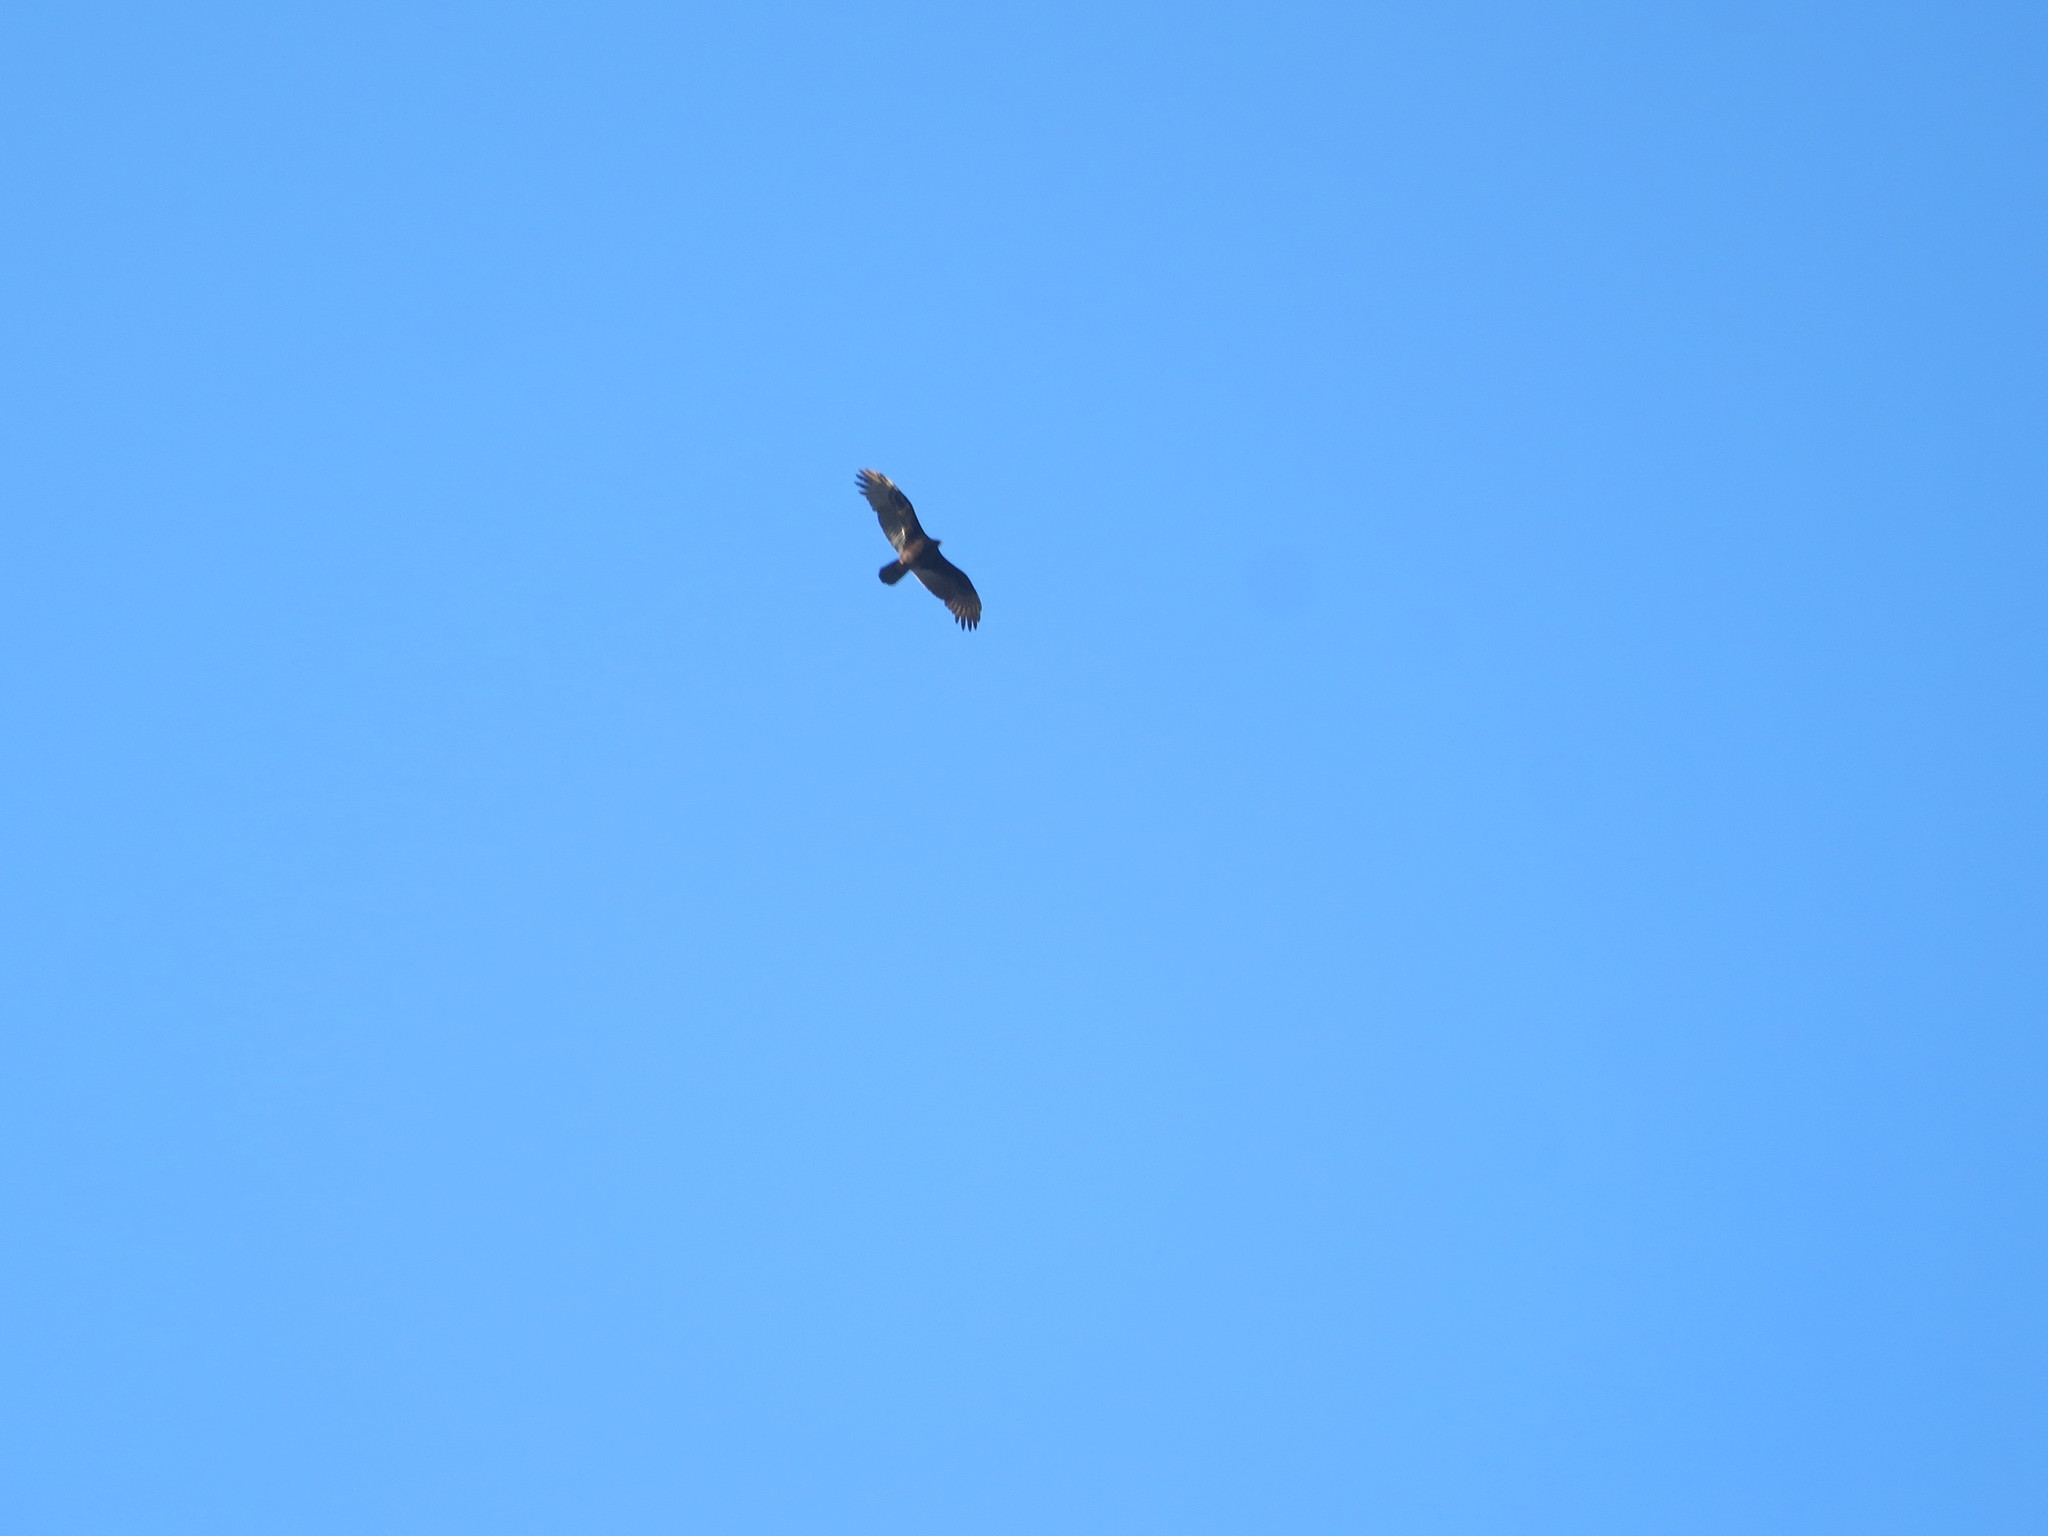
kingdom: Animalia
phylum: Chordata
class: Aves
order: Accipitriformes
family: Cathartidae
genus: Cathartes
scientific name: Cathartes aura
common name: Turkey vulture
